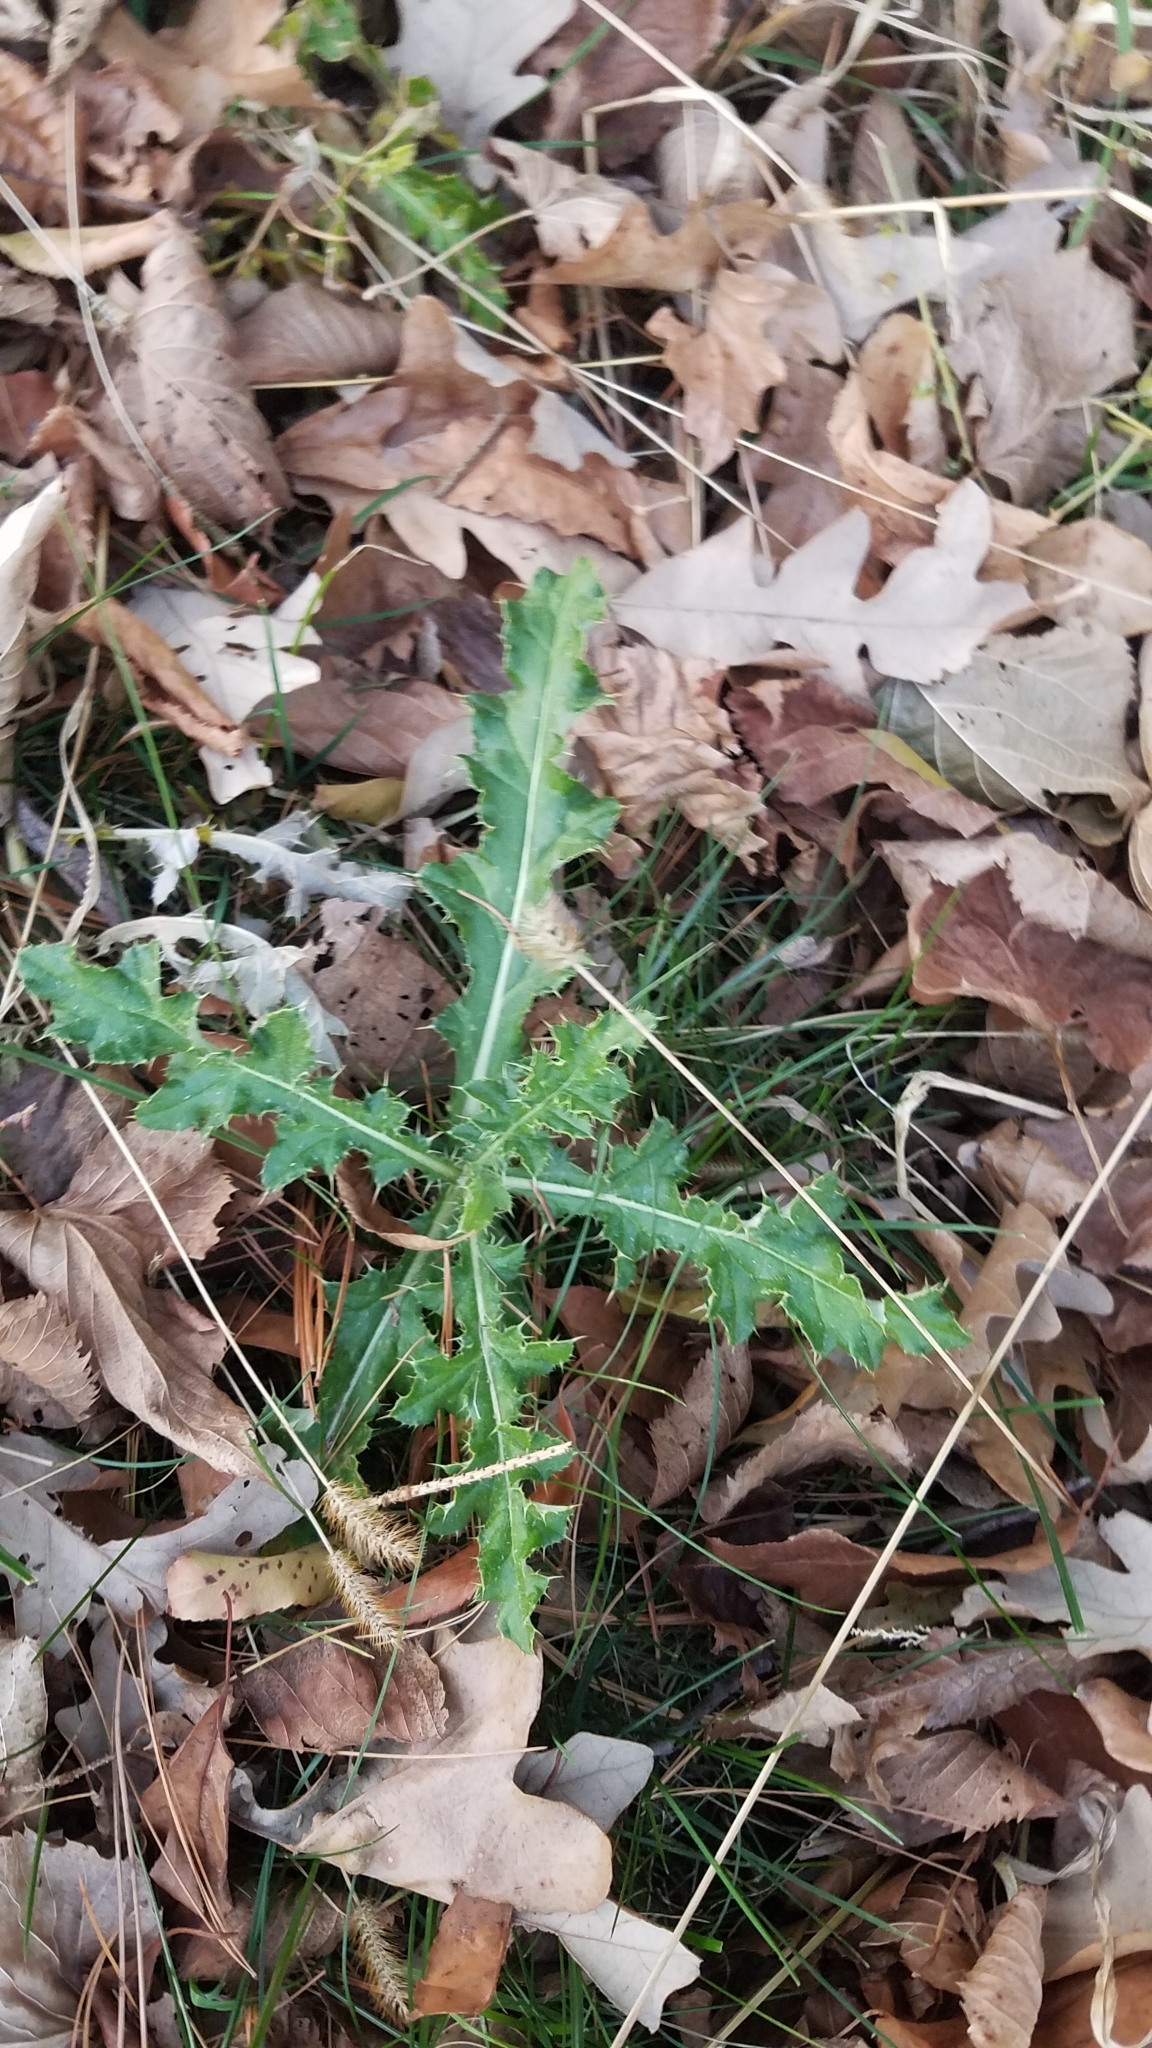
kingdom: Plantae
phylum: Tracheophyta
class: Magnoliopsida
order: Asterales
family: Asteraceae
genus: Cirsium
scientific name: Cirsium arvense
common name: Creeping thistle
